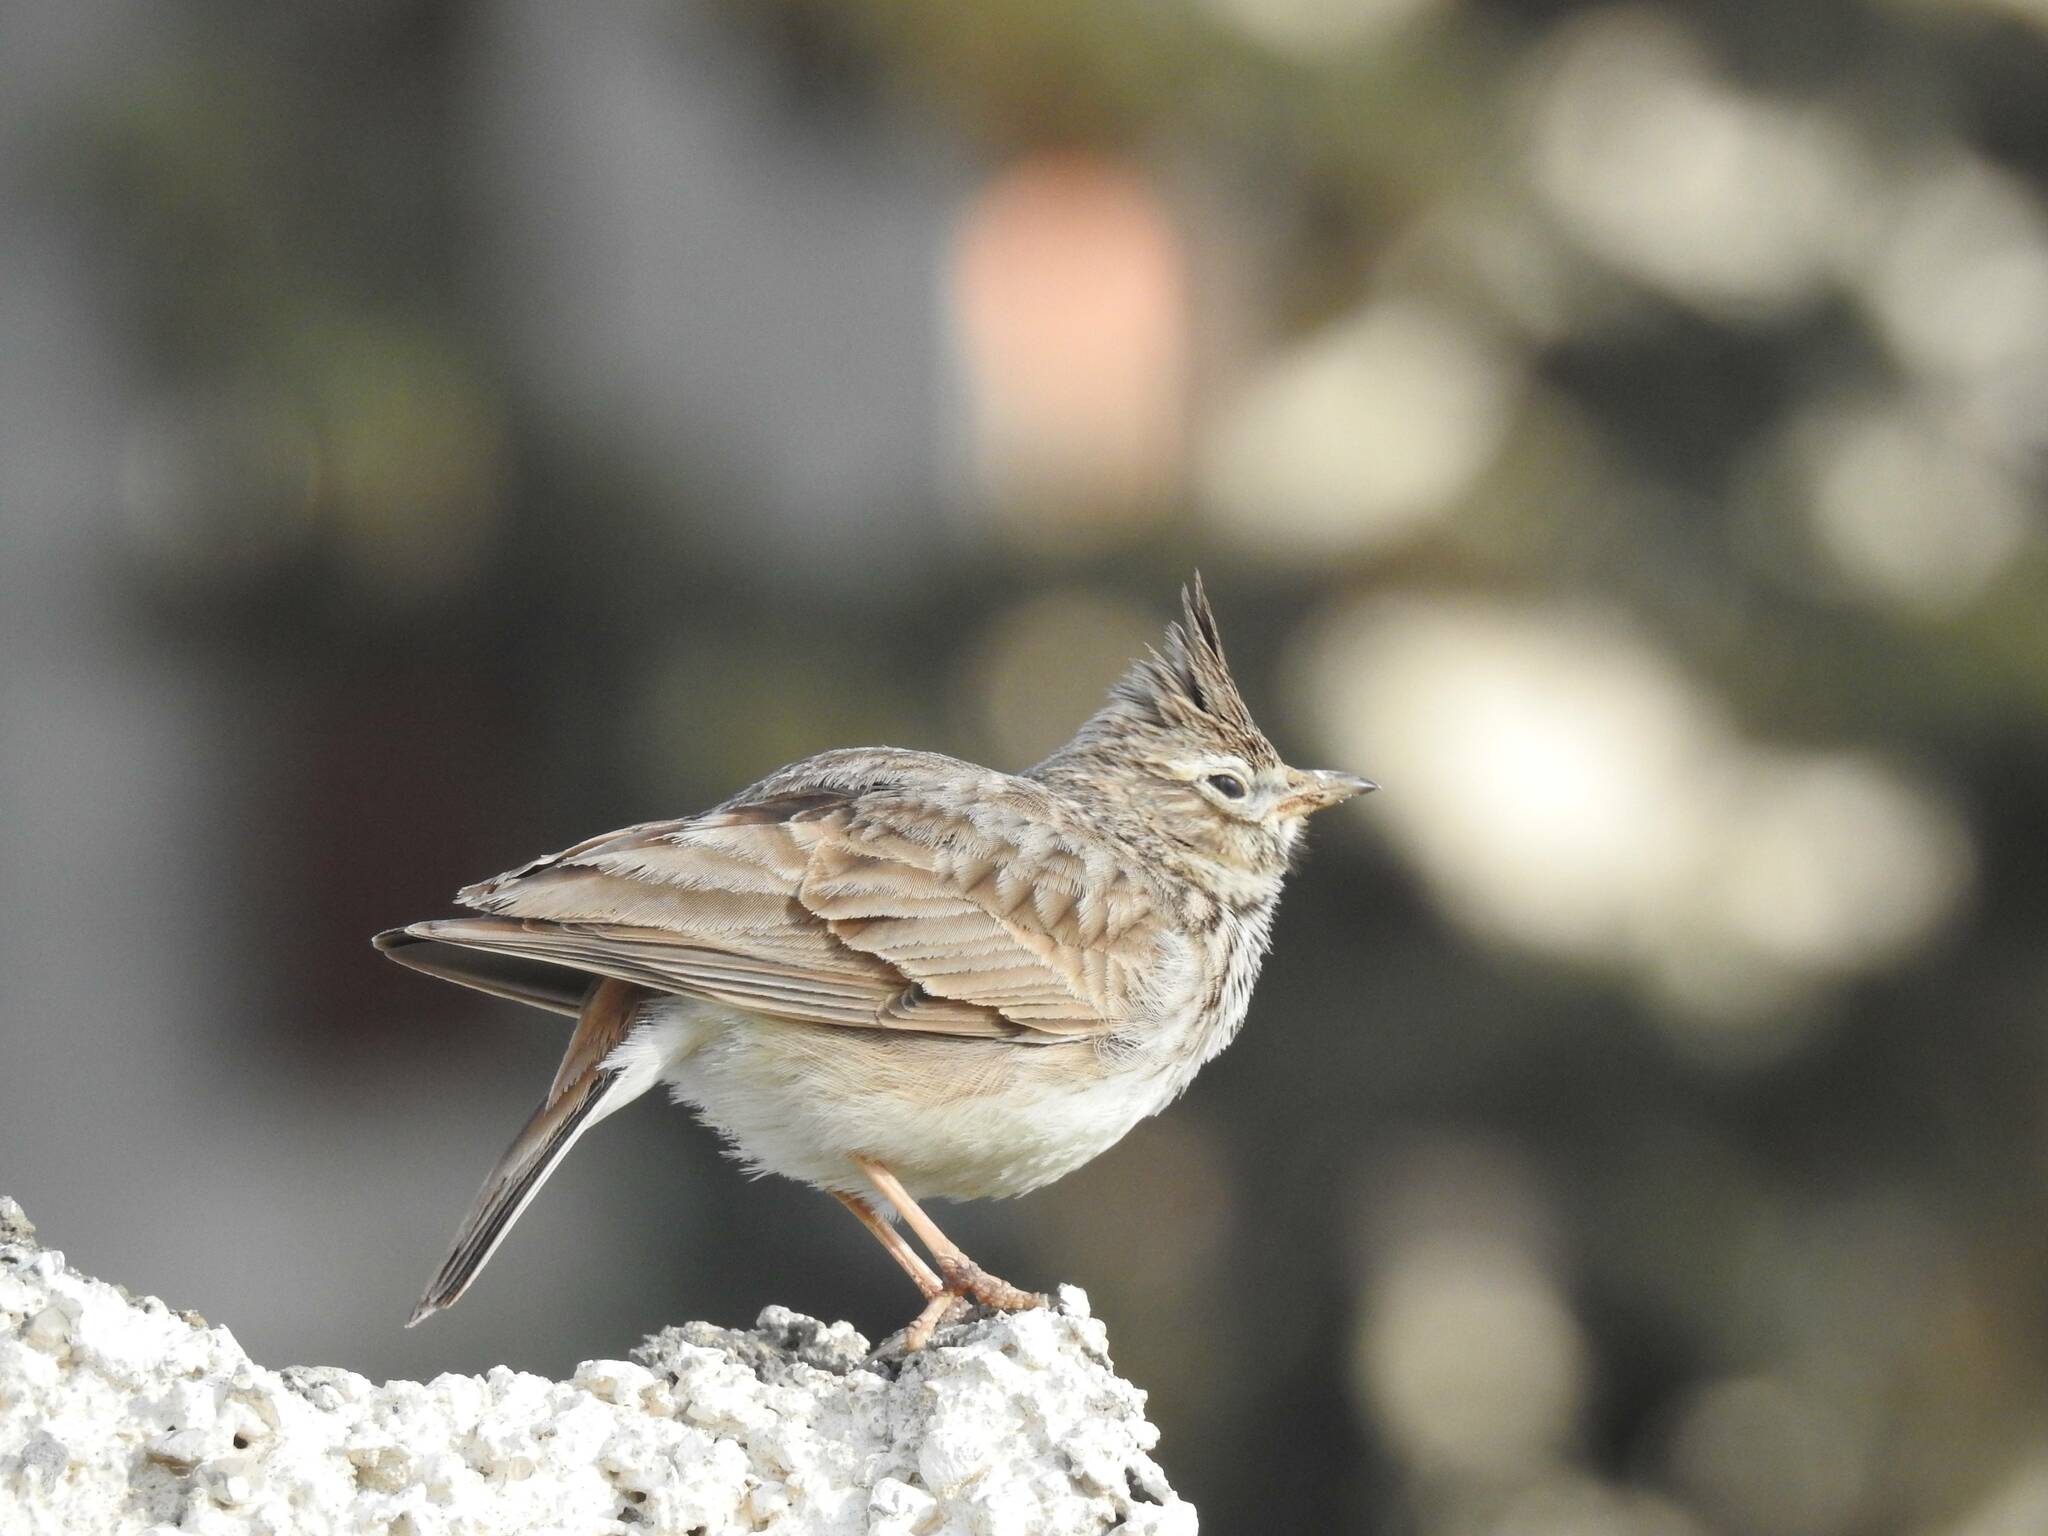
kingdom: Animalia
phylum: Chordata
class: Aves
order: Passeriformes
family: Alaudidae
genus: Galerida
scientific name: Galerida cristata
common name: Crested lark
